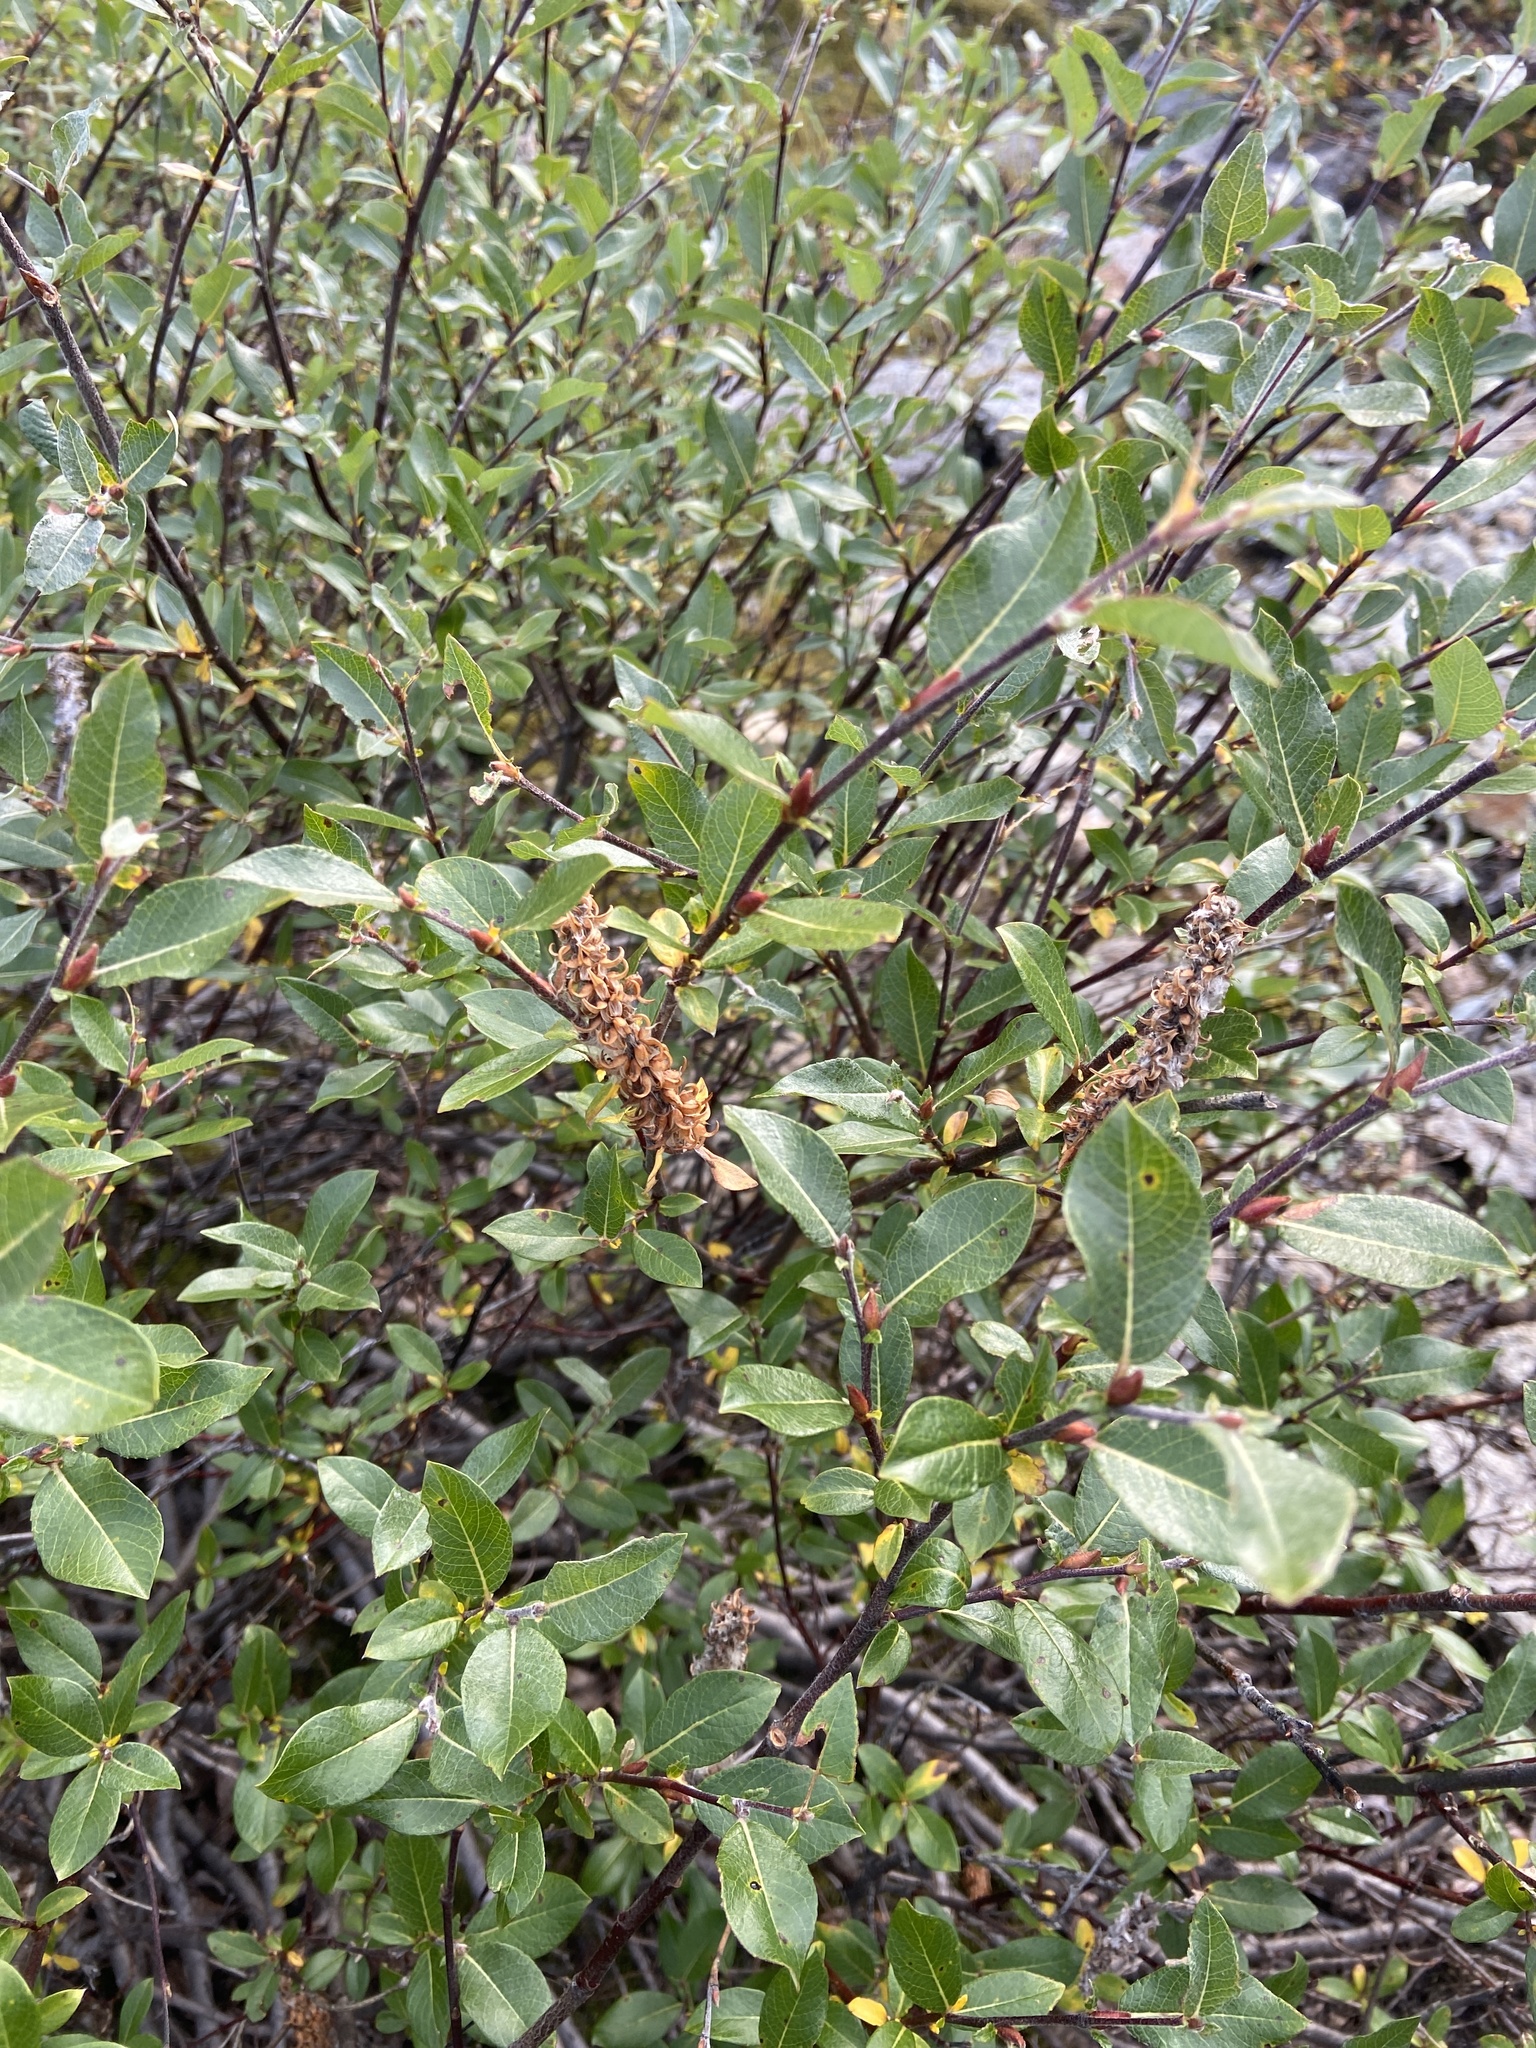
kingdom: Plantae
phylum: Tracheophyta
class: Magnoliopsida
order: Malpighiales
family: Salicaceae
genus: Salix
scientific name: Salix saxatilis
